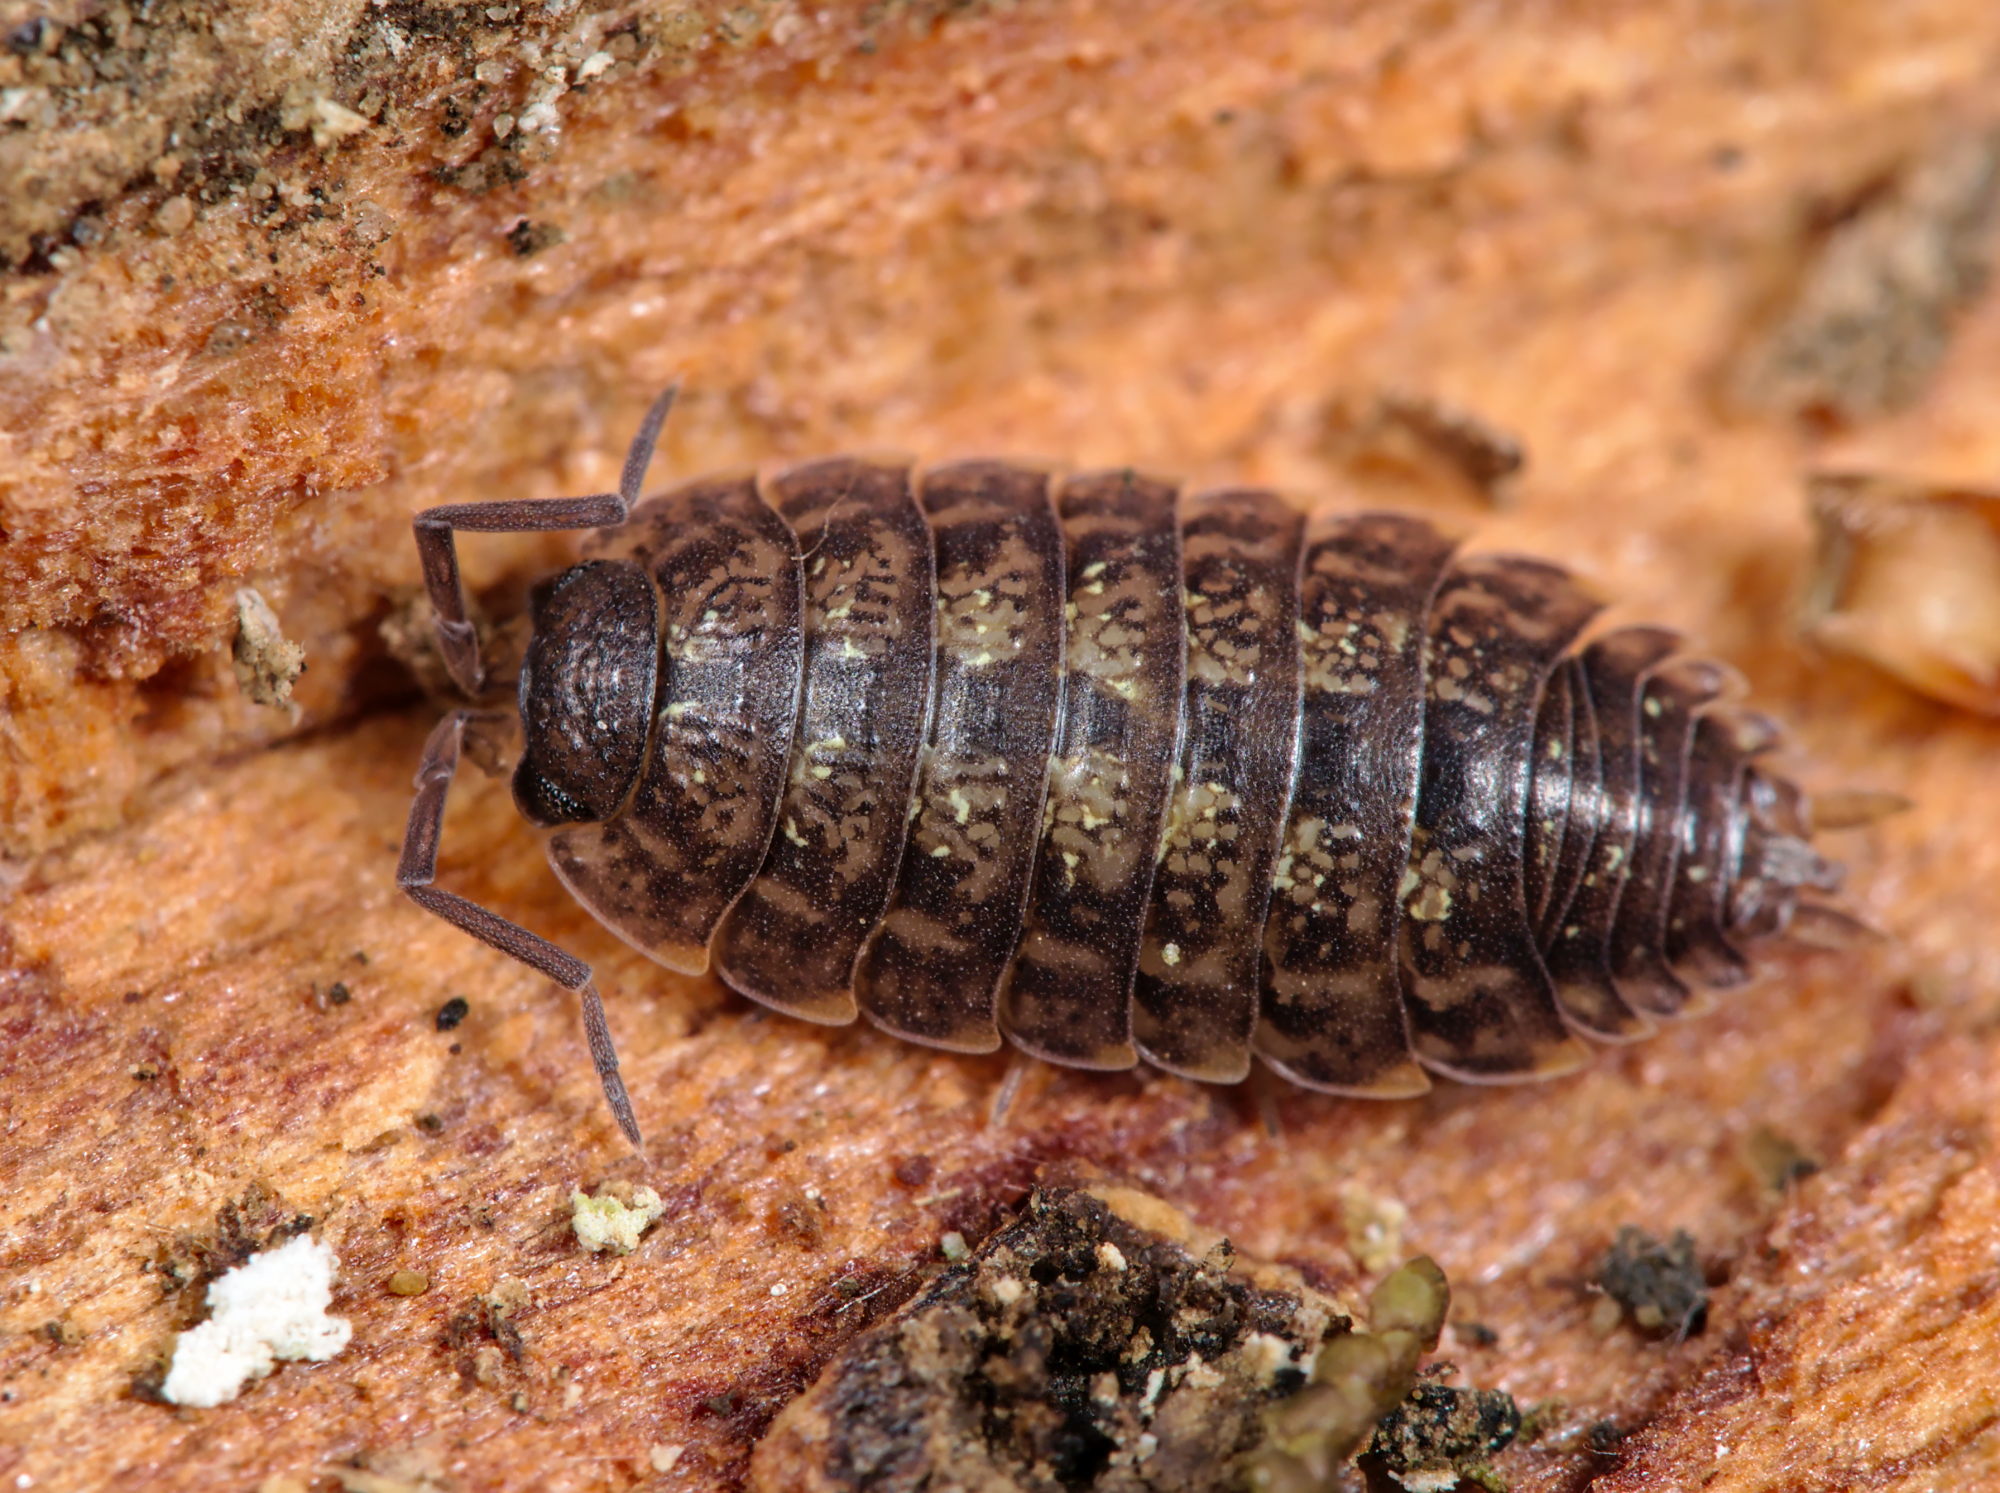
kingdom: Animalia
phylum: Arthropoda
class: Malacostraca
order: Isopoda
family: Porcellionidae
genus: Porcellio
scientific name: Porcellio monticola
